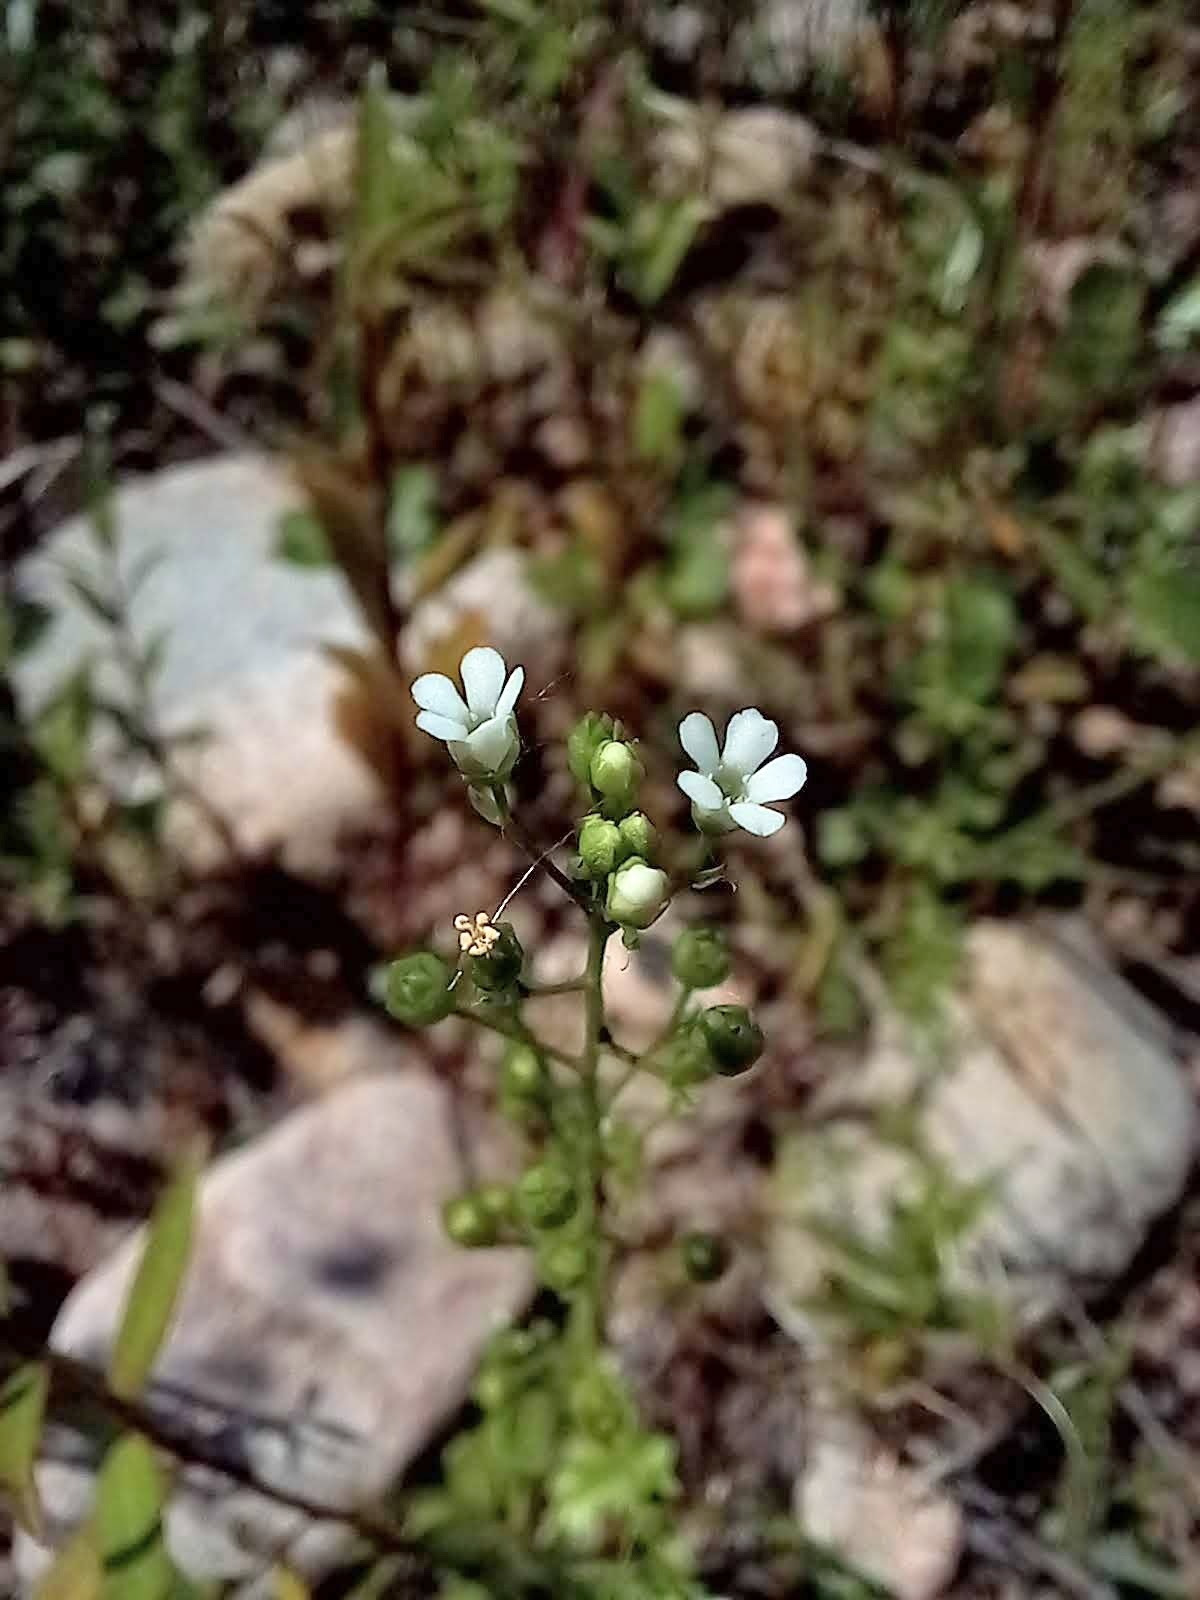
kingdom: Plantae
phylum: Tracheophyta
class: Magnoliopsida
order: Ericales
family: Primulaceae
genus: Samolus
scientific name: Samolus valerandi
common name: Brookweed
